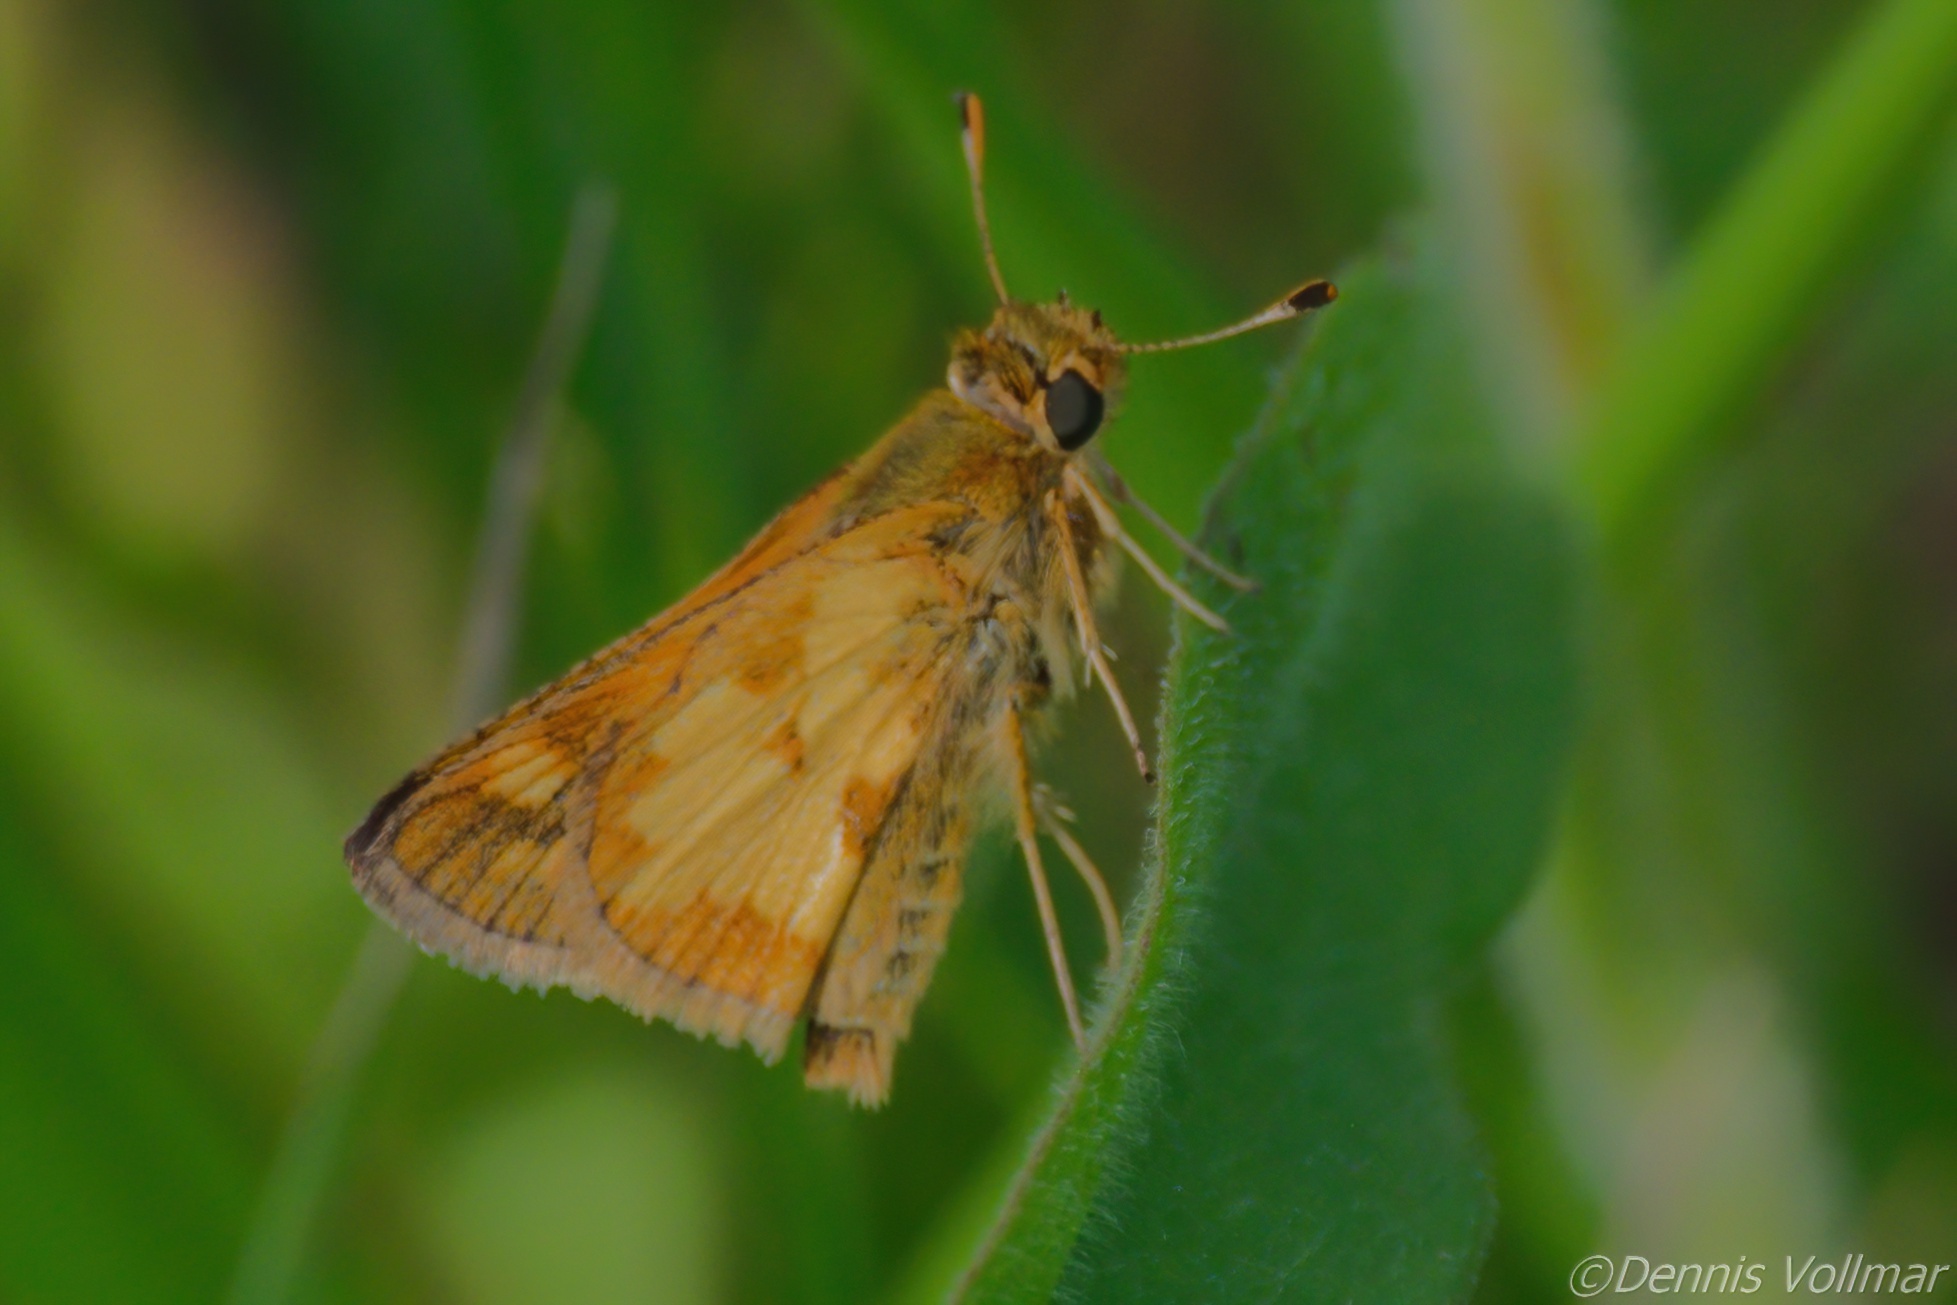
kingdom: Animalia
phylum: Arthropoda
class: Insecta
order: Lepidoptera
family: Hesperiidae
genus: Polites
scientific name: Polites coras
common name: Peck's skipper
